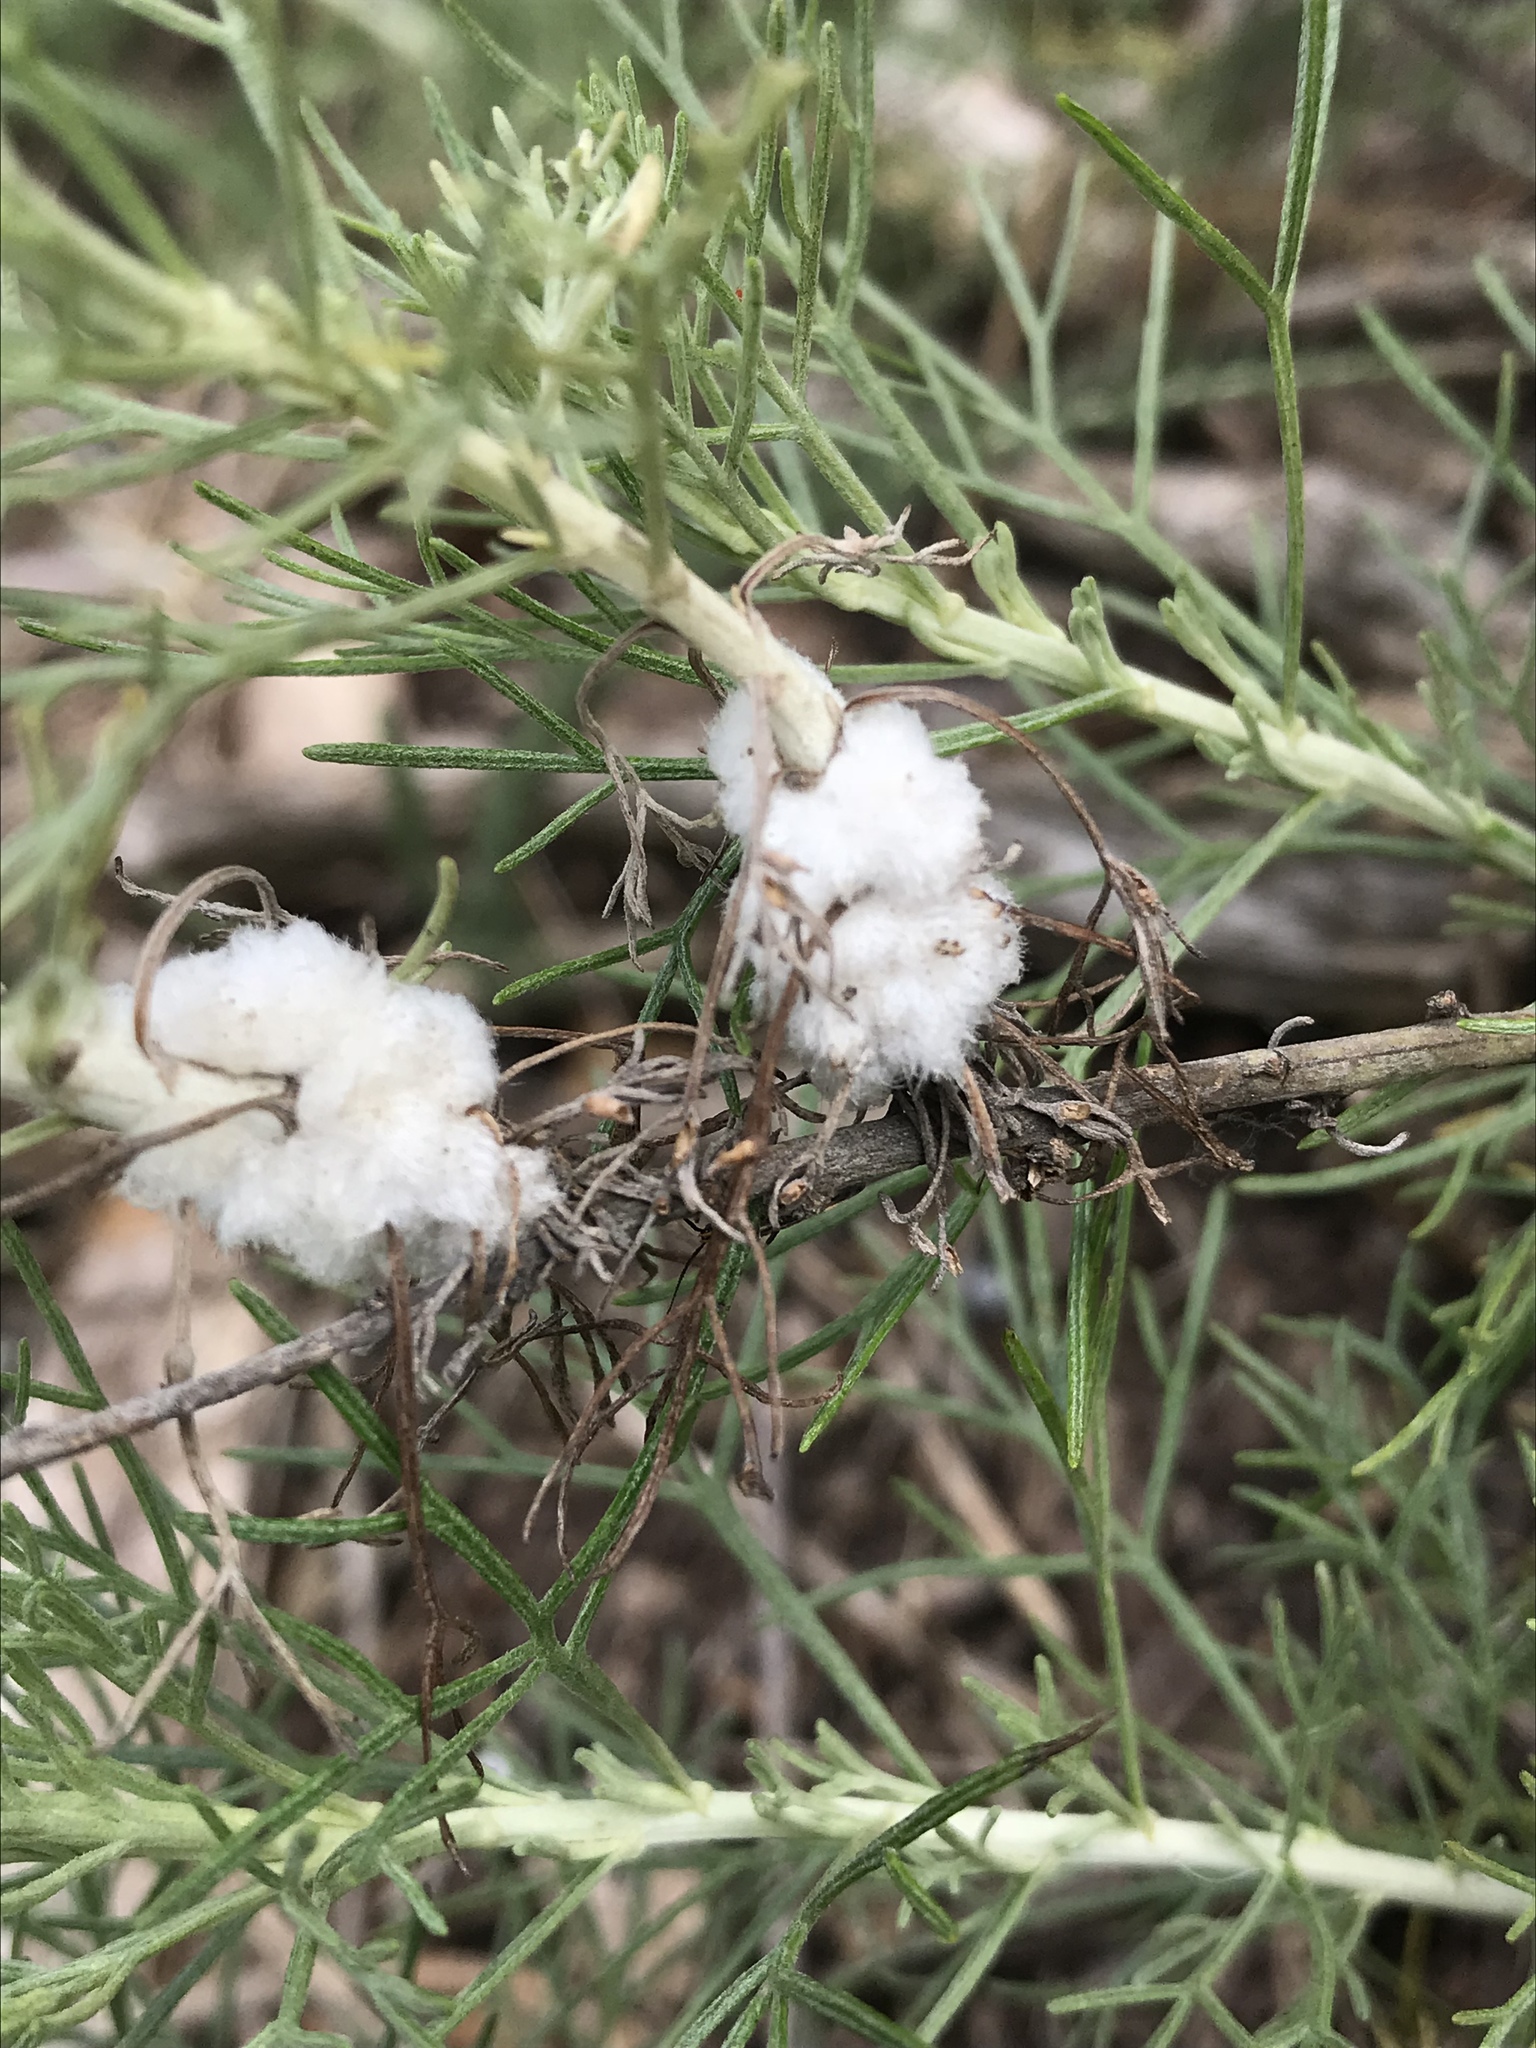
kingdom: Animalia
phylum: Arthropoda
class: Insecta
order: Diptera
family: Cecidomyiidae
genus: Rhopalomyia
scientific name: Rhopalomyia floccosa
